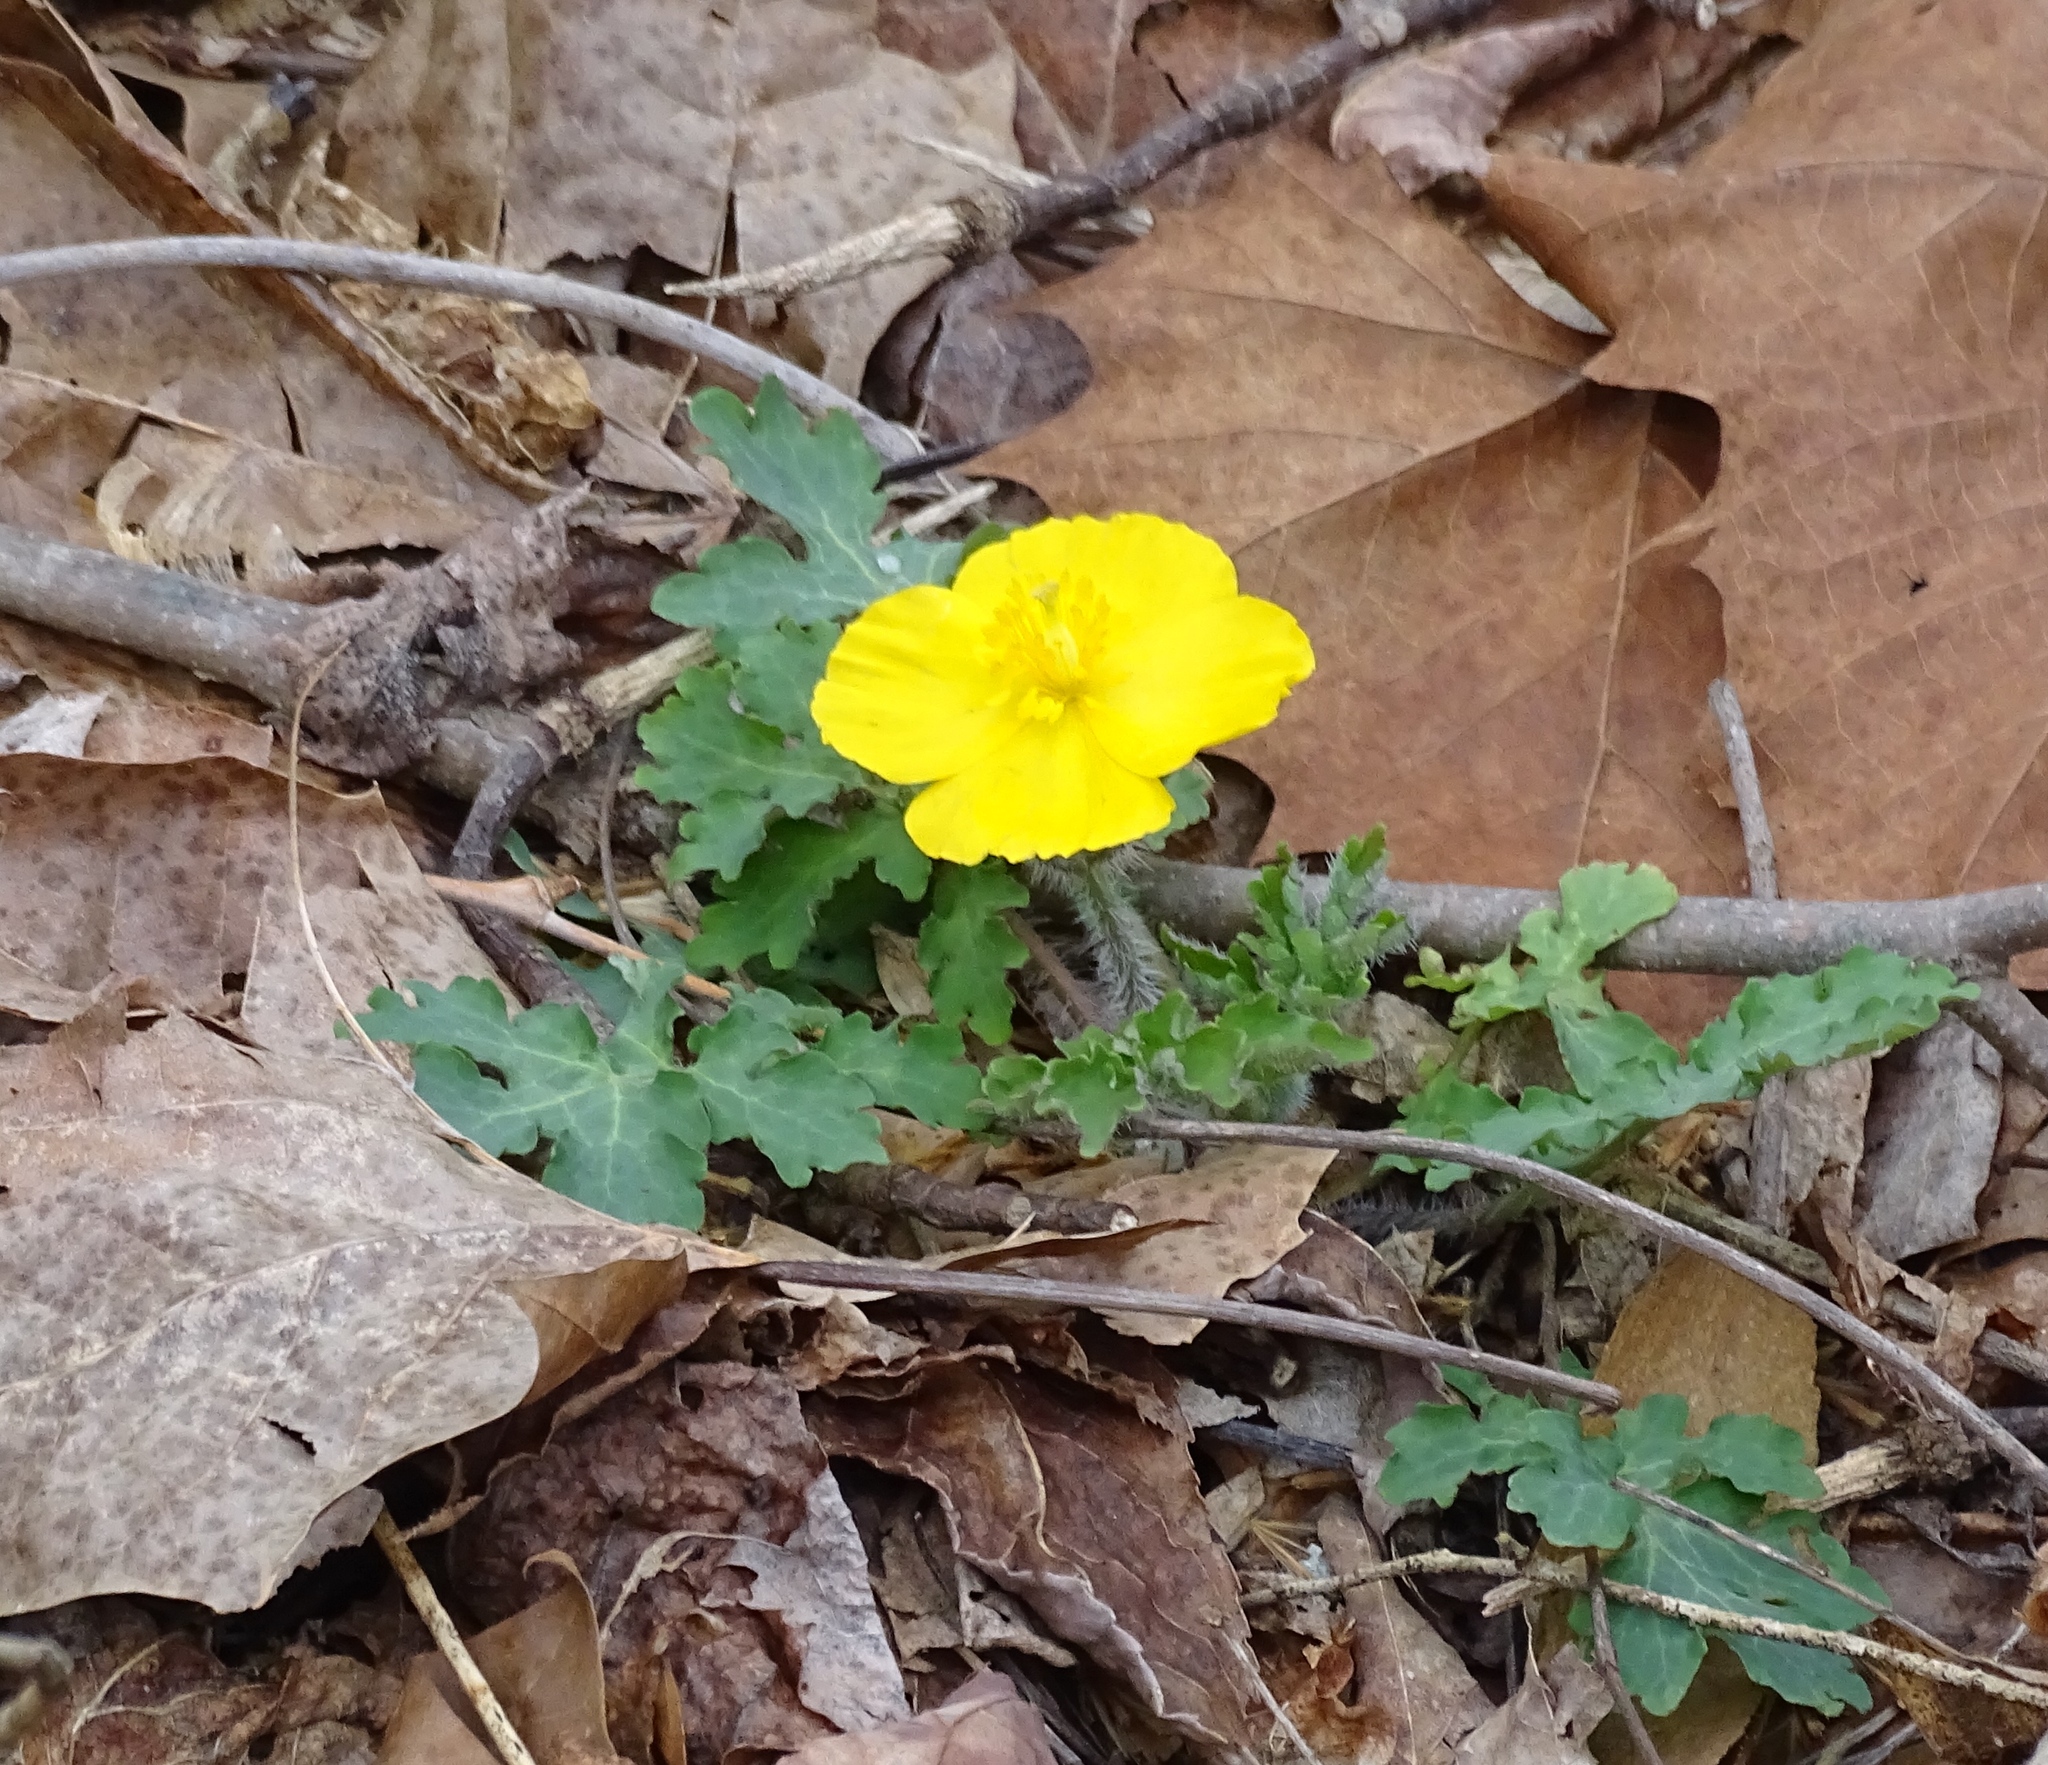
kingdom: Plantae
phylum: Tracheophyta
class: Magnoliopsida
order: Ranunculales
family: Papaveraceae
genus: Stylophorum
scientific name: Stylophorum diphyllum
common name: Celandine poppy
